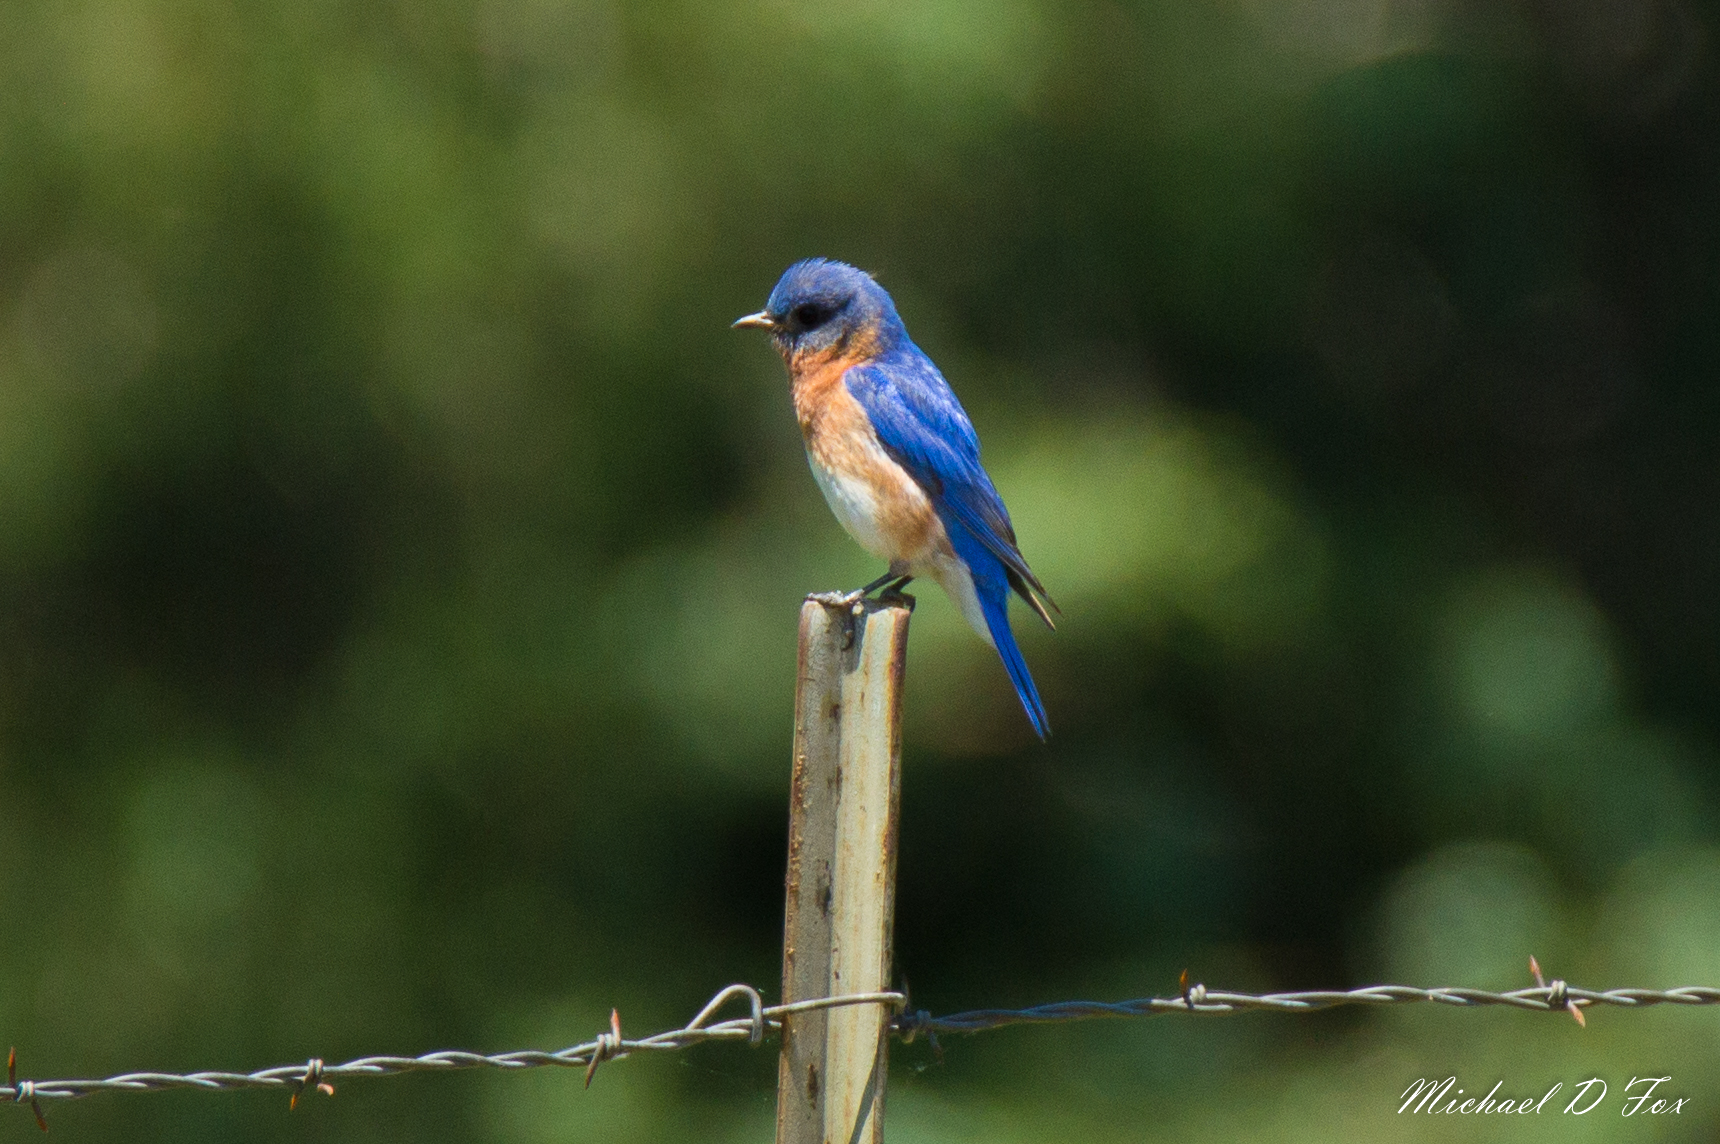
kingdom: Animalia
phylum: Chordata
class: Aves
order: Passeriformes
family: Turdidae
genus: Sialia
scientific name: Sialia sialis
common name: Eastern bluebird
